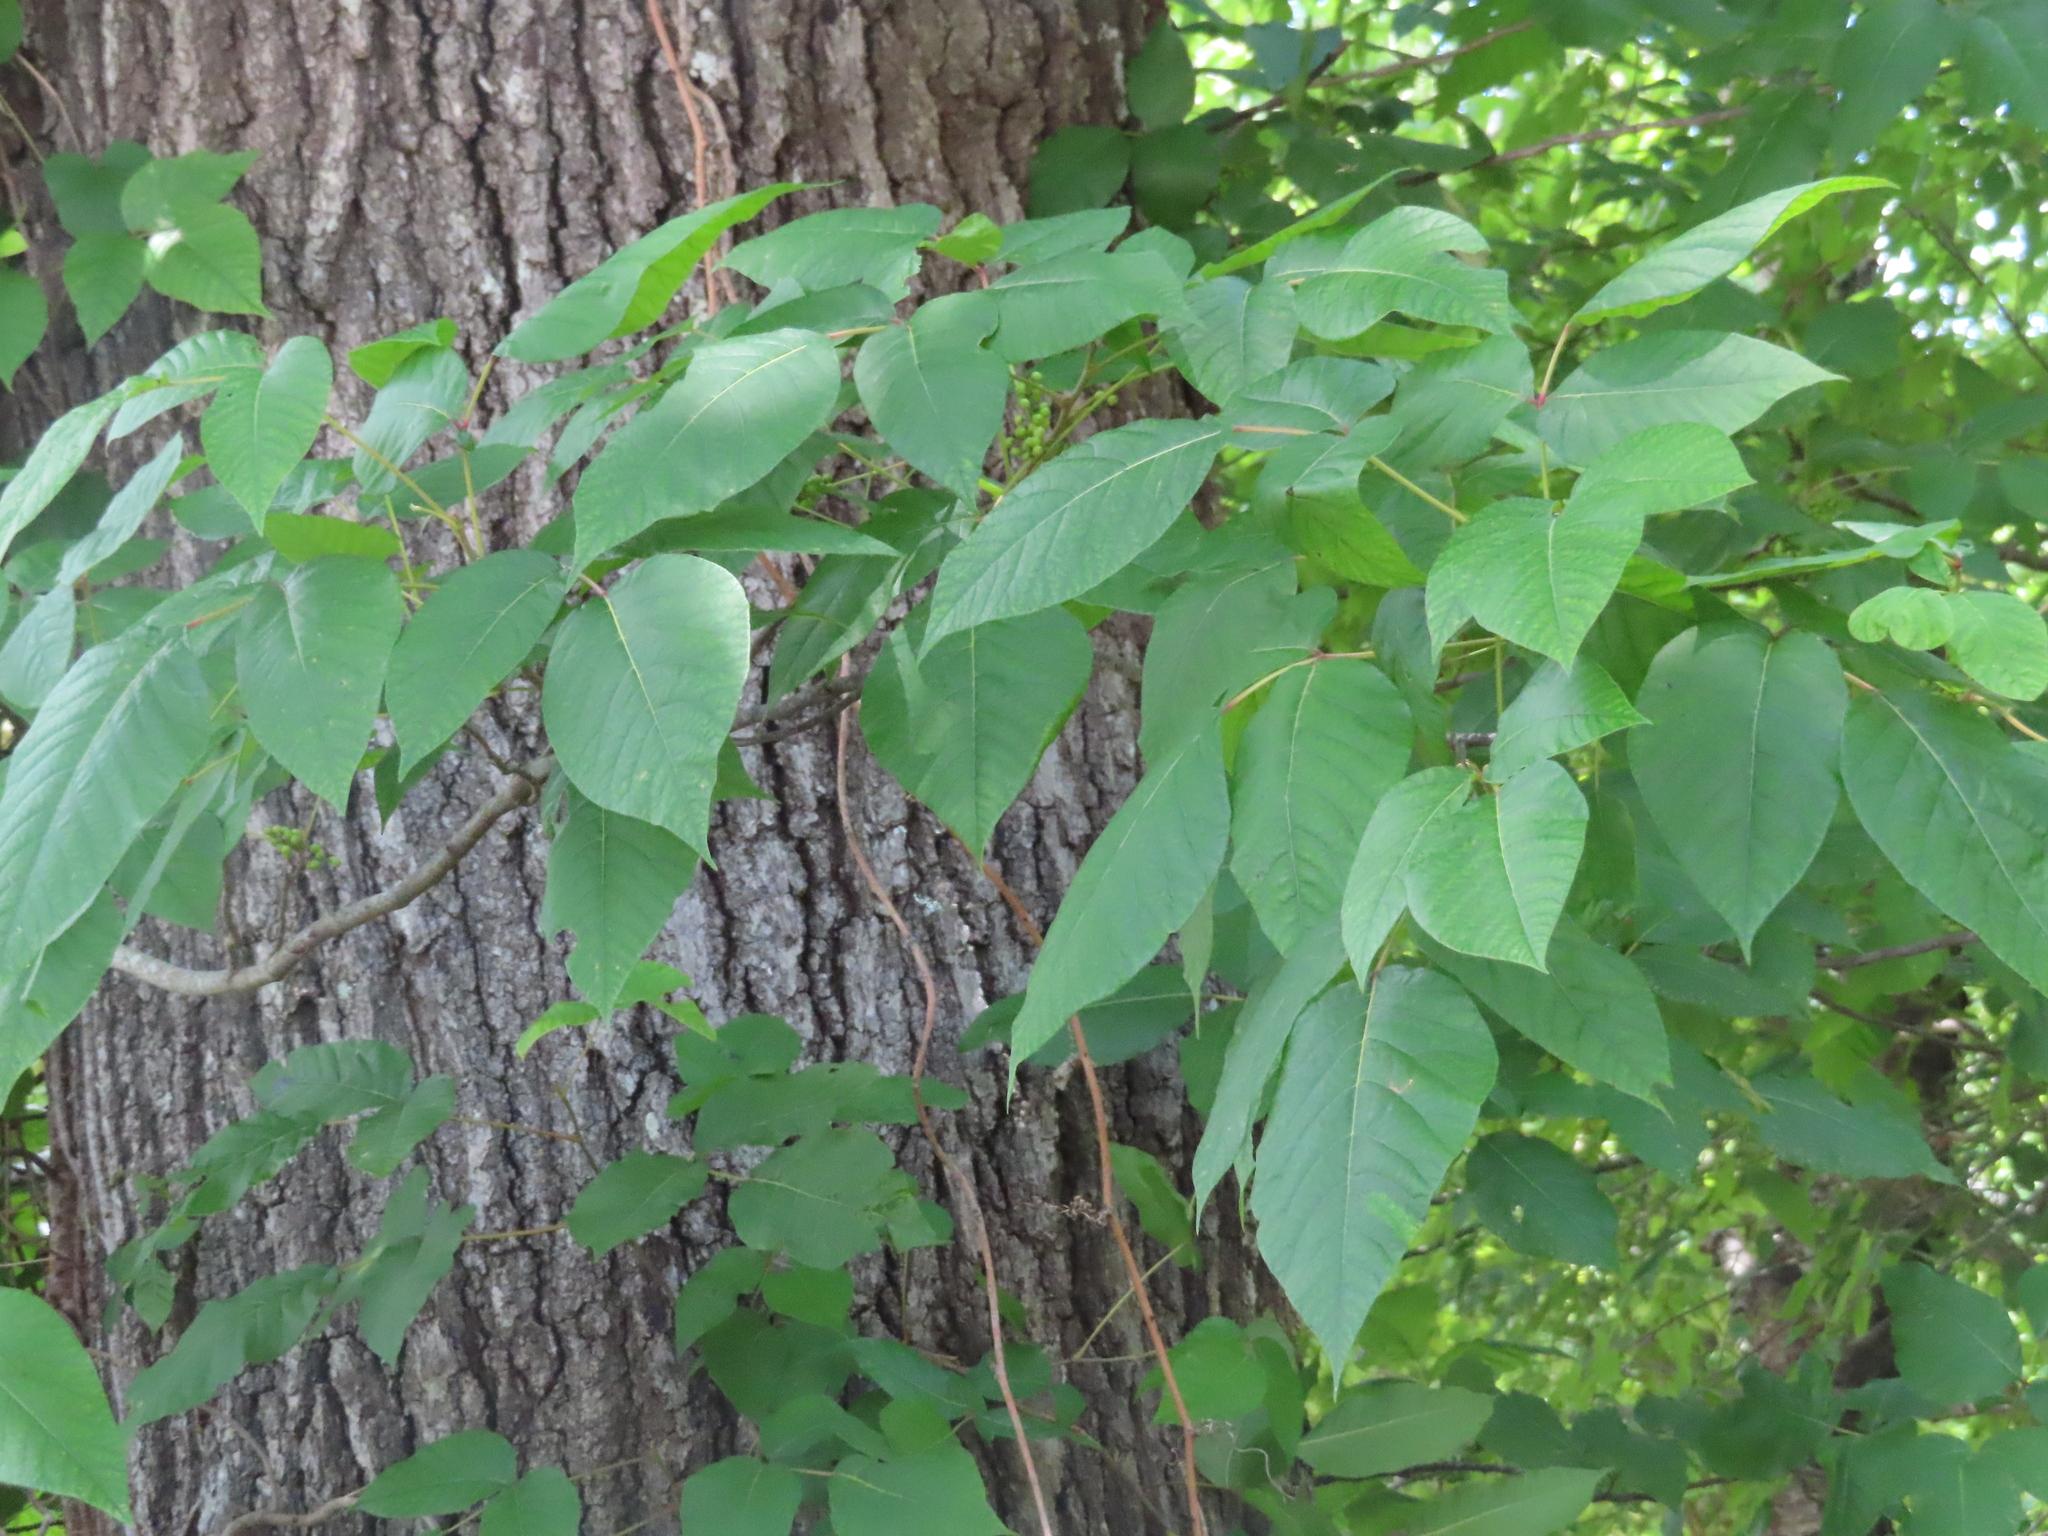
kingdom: Plantae
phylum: Tracheophyta
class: Magnoliopsida
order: Sapindales
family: Anacardiaceae
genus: Toxicodendron
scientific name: Toxicodendron radicans
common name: Poison ivy
